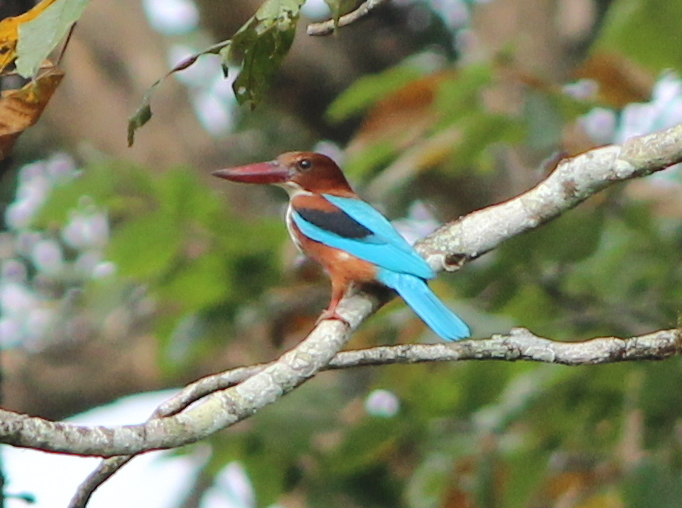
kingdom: Animalia
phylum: Chordata
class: Aves
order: Coraciiformes
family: Alcedinidae
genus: Halcyon
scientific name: Halcyon smyrnensis
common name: White-throated kingfisher
